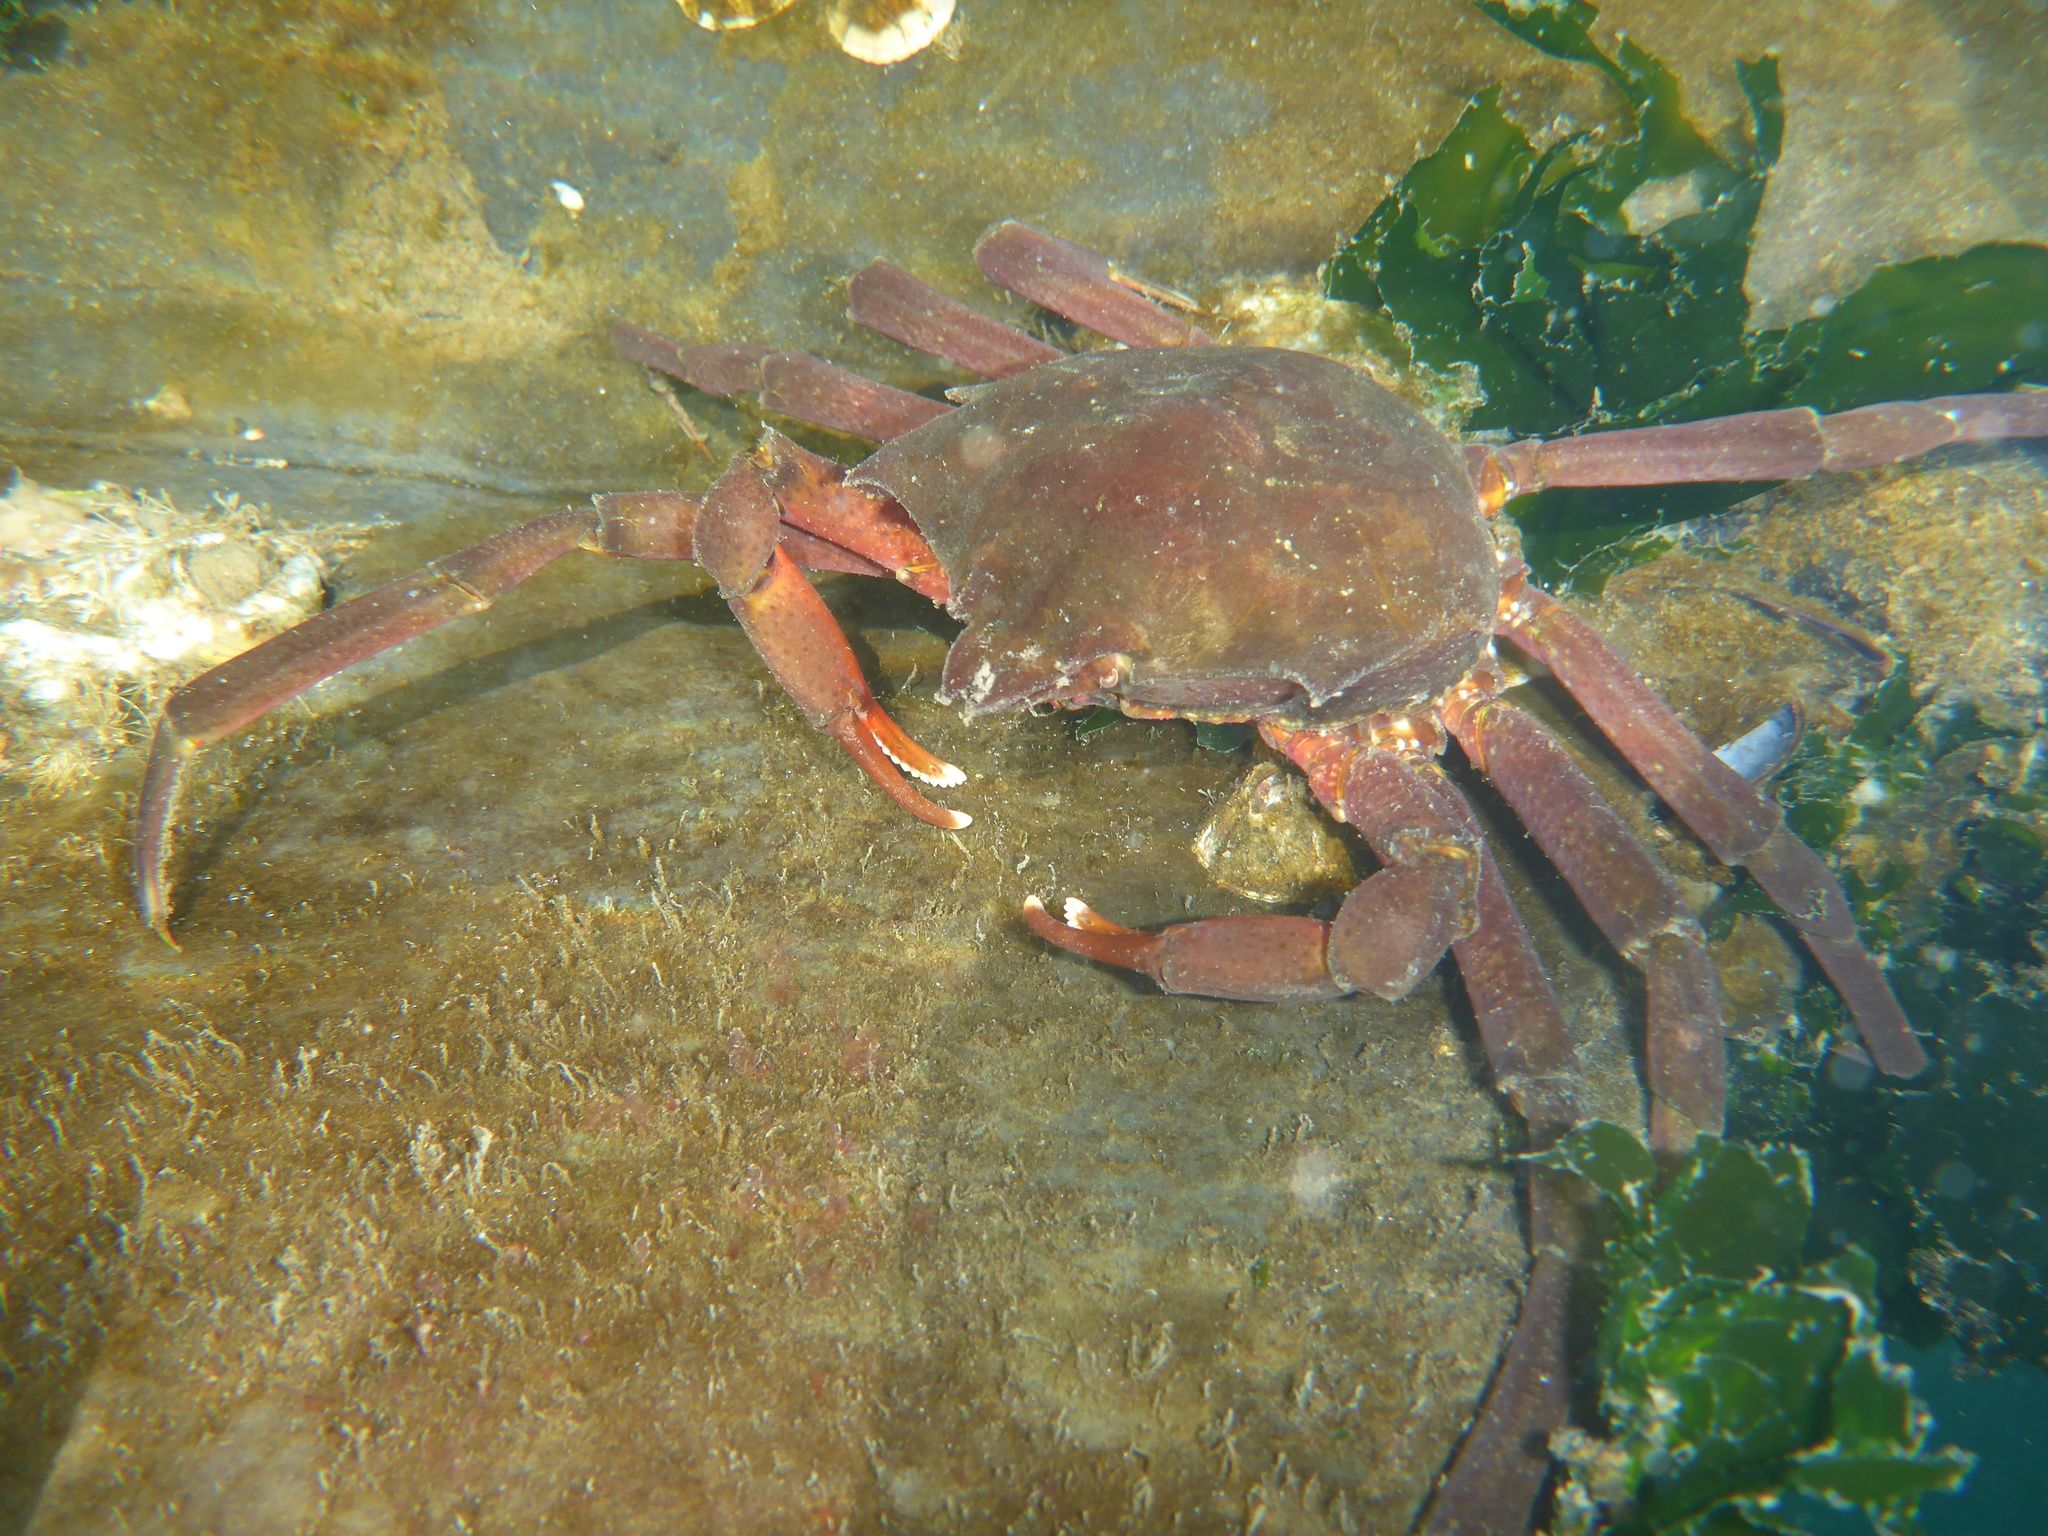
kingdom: Animalia
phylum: Arthropoda
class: Malacostraca
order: Decapoda
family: Epialtidae
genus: Pugettia
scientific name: Pugettia producta
